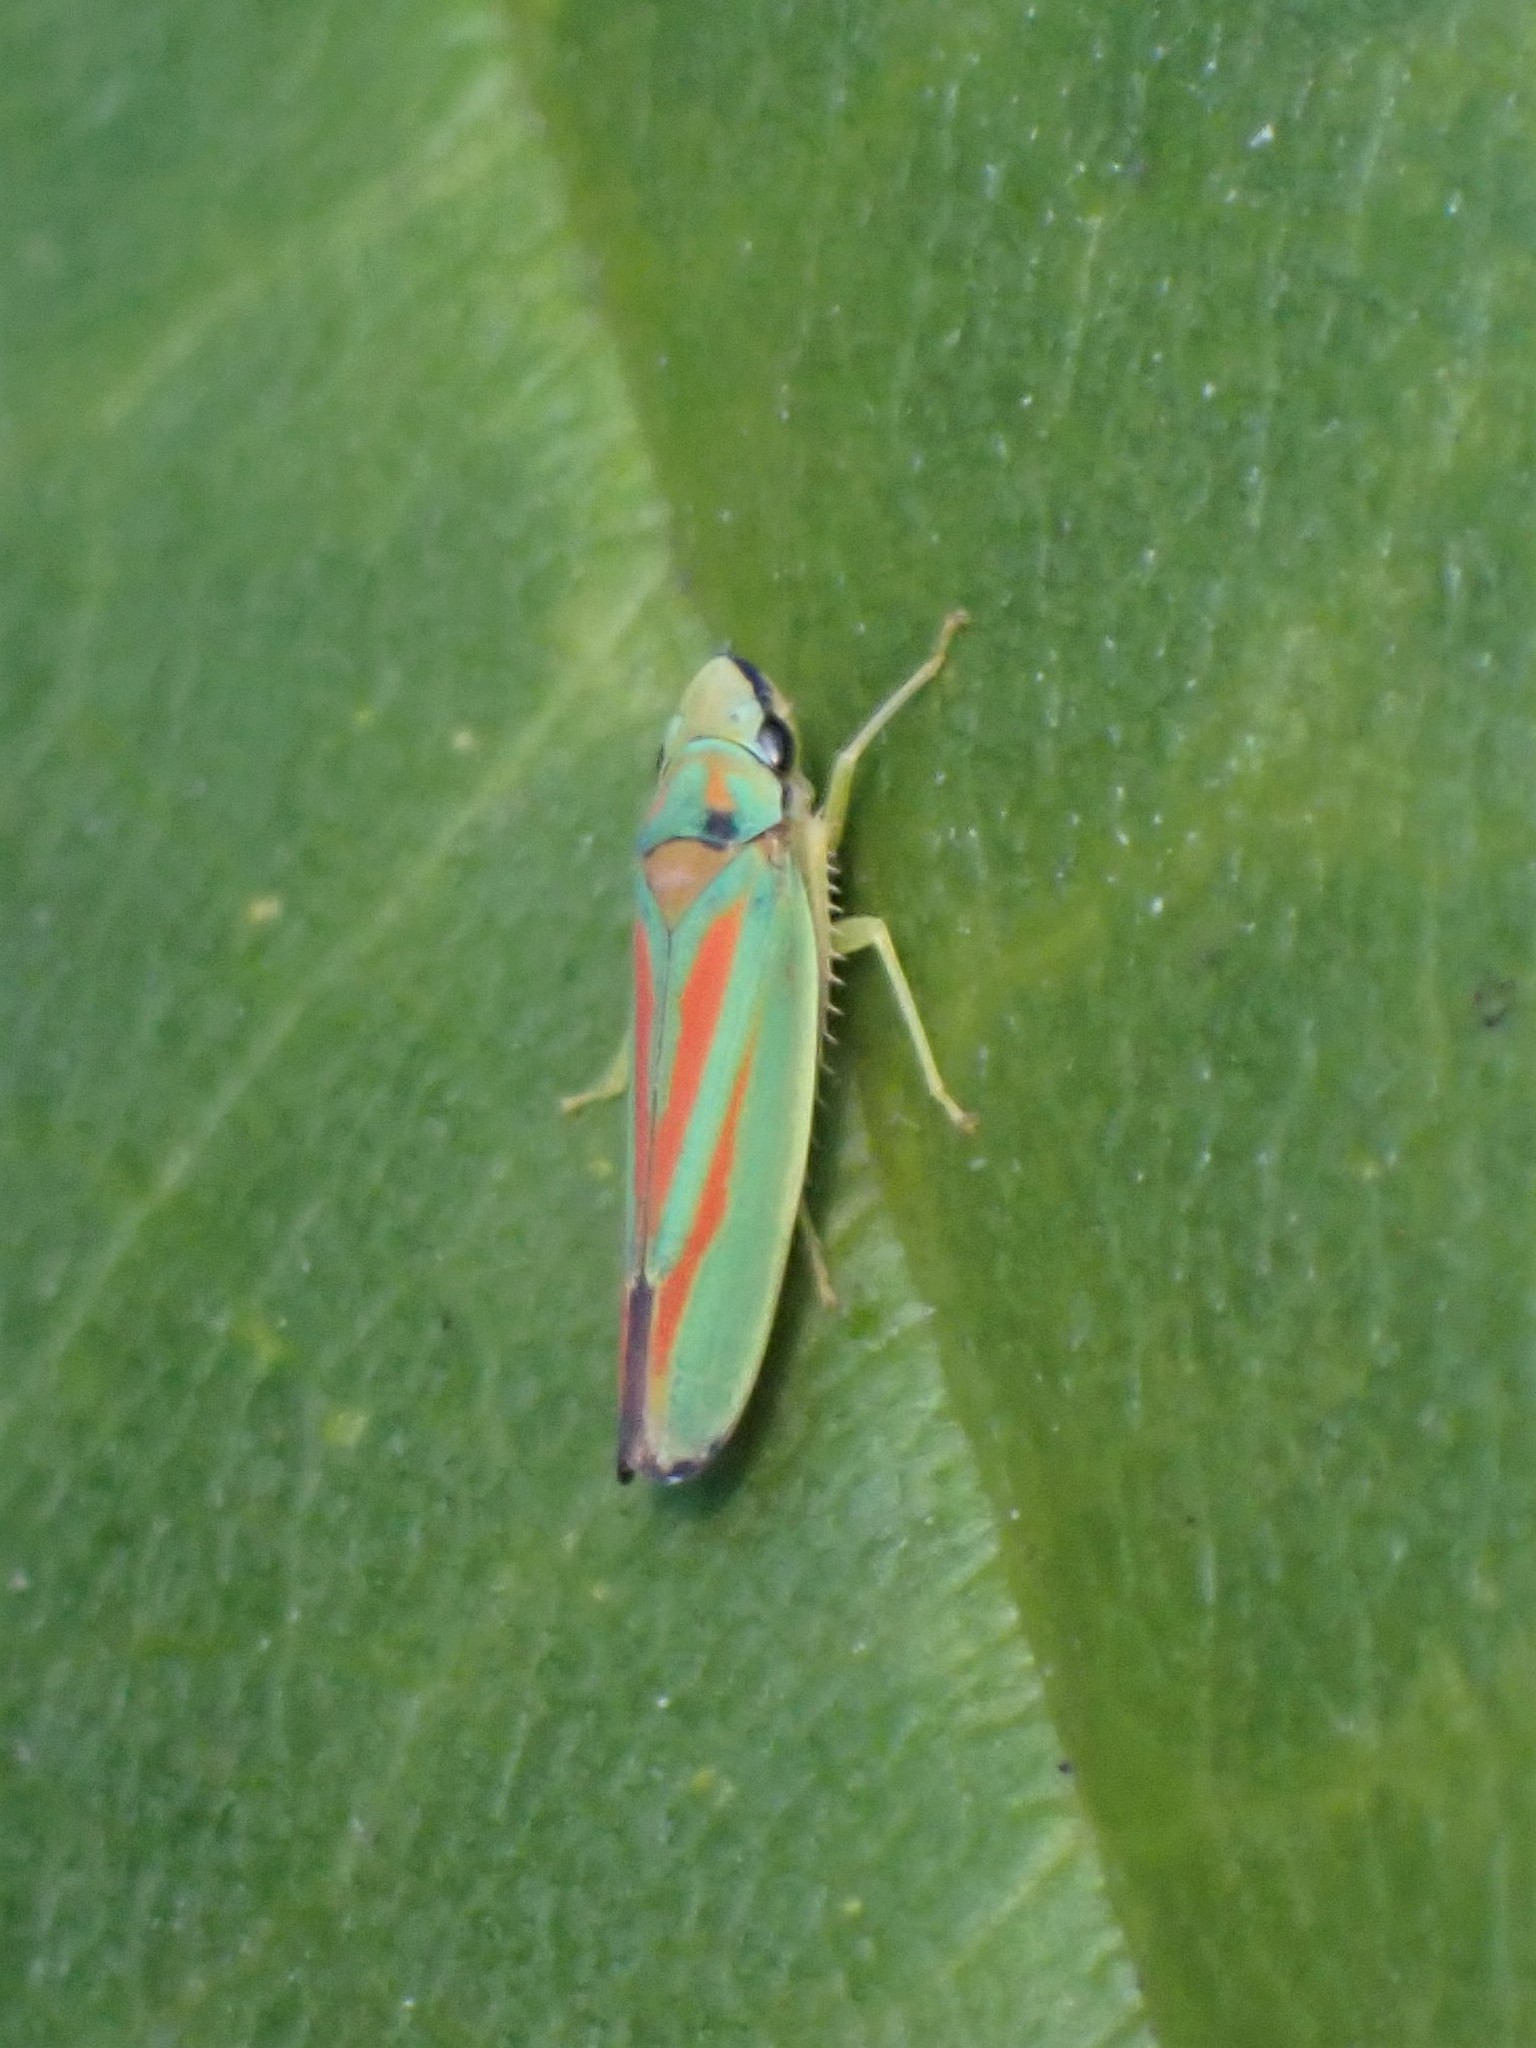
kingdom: Animalia
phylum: Arthropoda
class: Insecta
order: Hemiptera
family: Cicadellidae
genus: Graphocephala
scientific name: Graphocephala fennahi
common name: Rhododendron leafhopper
